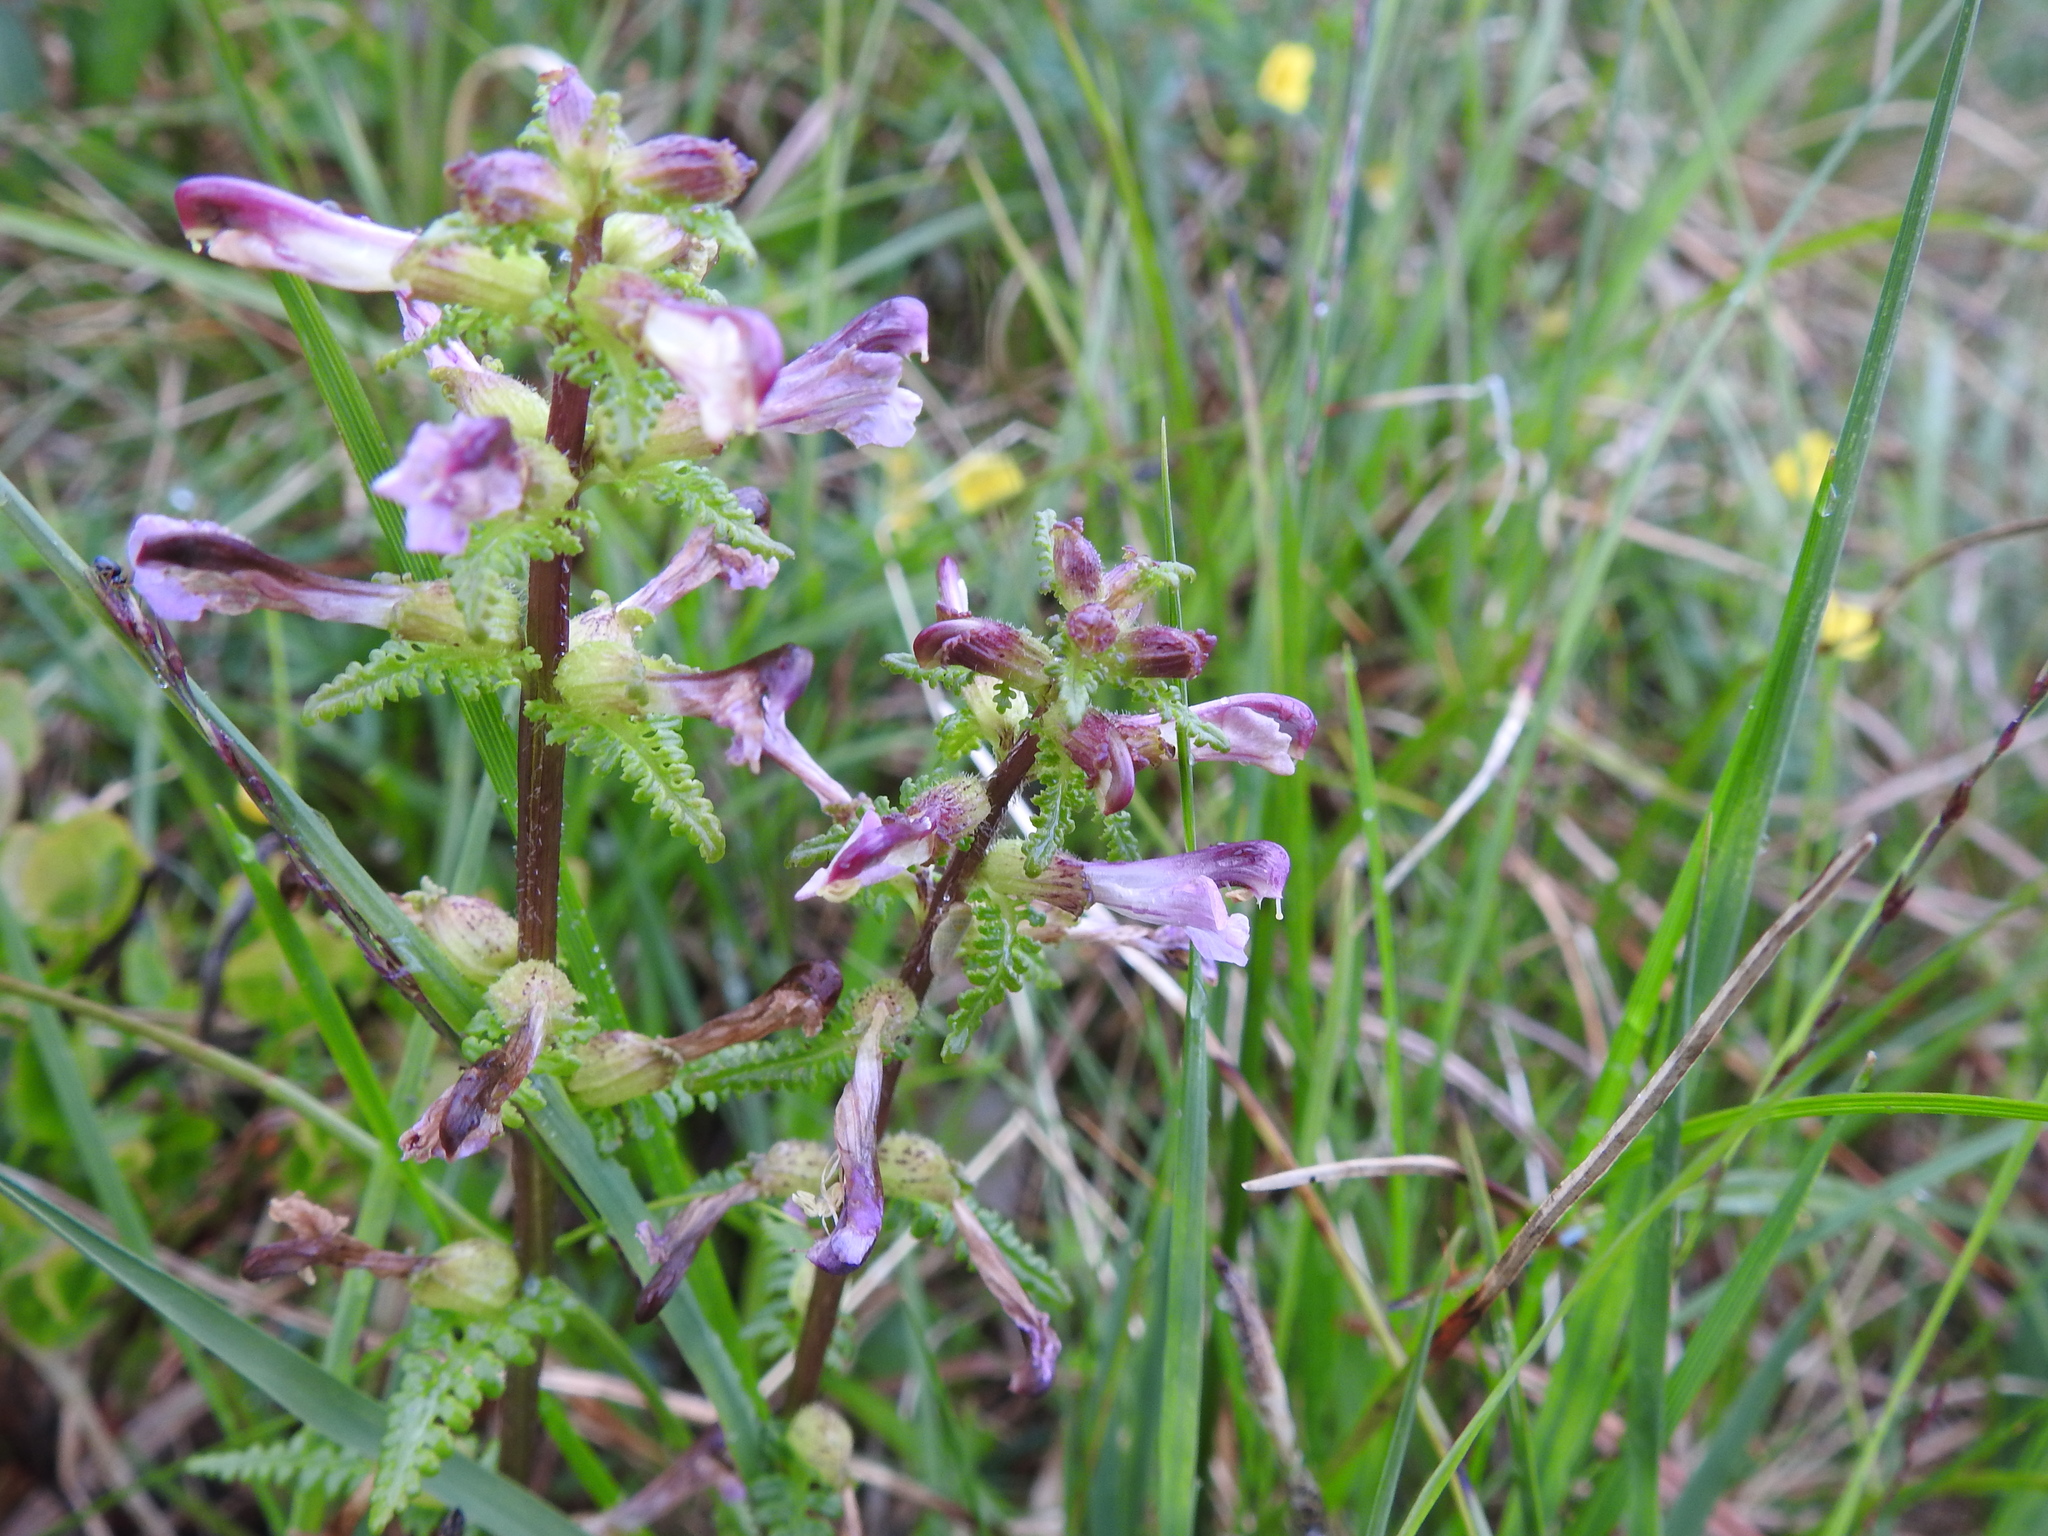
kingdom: Plantae
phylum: Tracheophyta
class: Magnoliopsida
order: Lamiales
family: Orobanchaceae
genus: Pedicularis
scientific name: Pedicularis palustris
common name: Marsh lousewort
